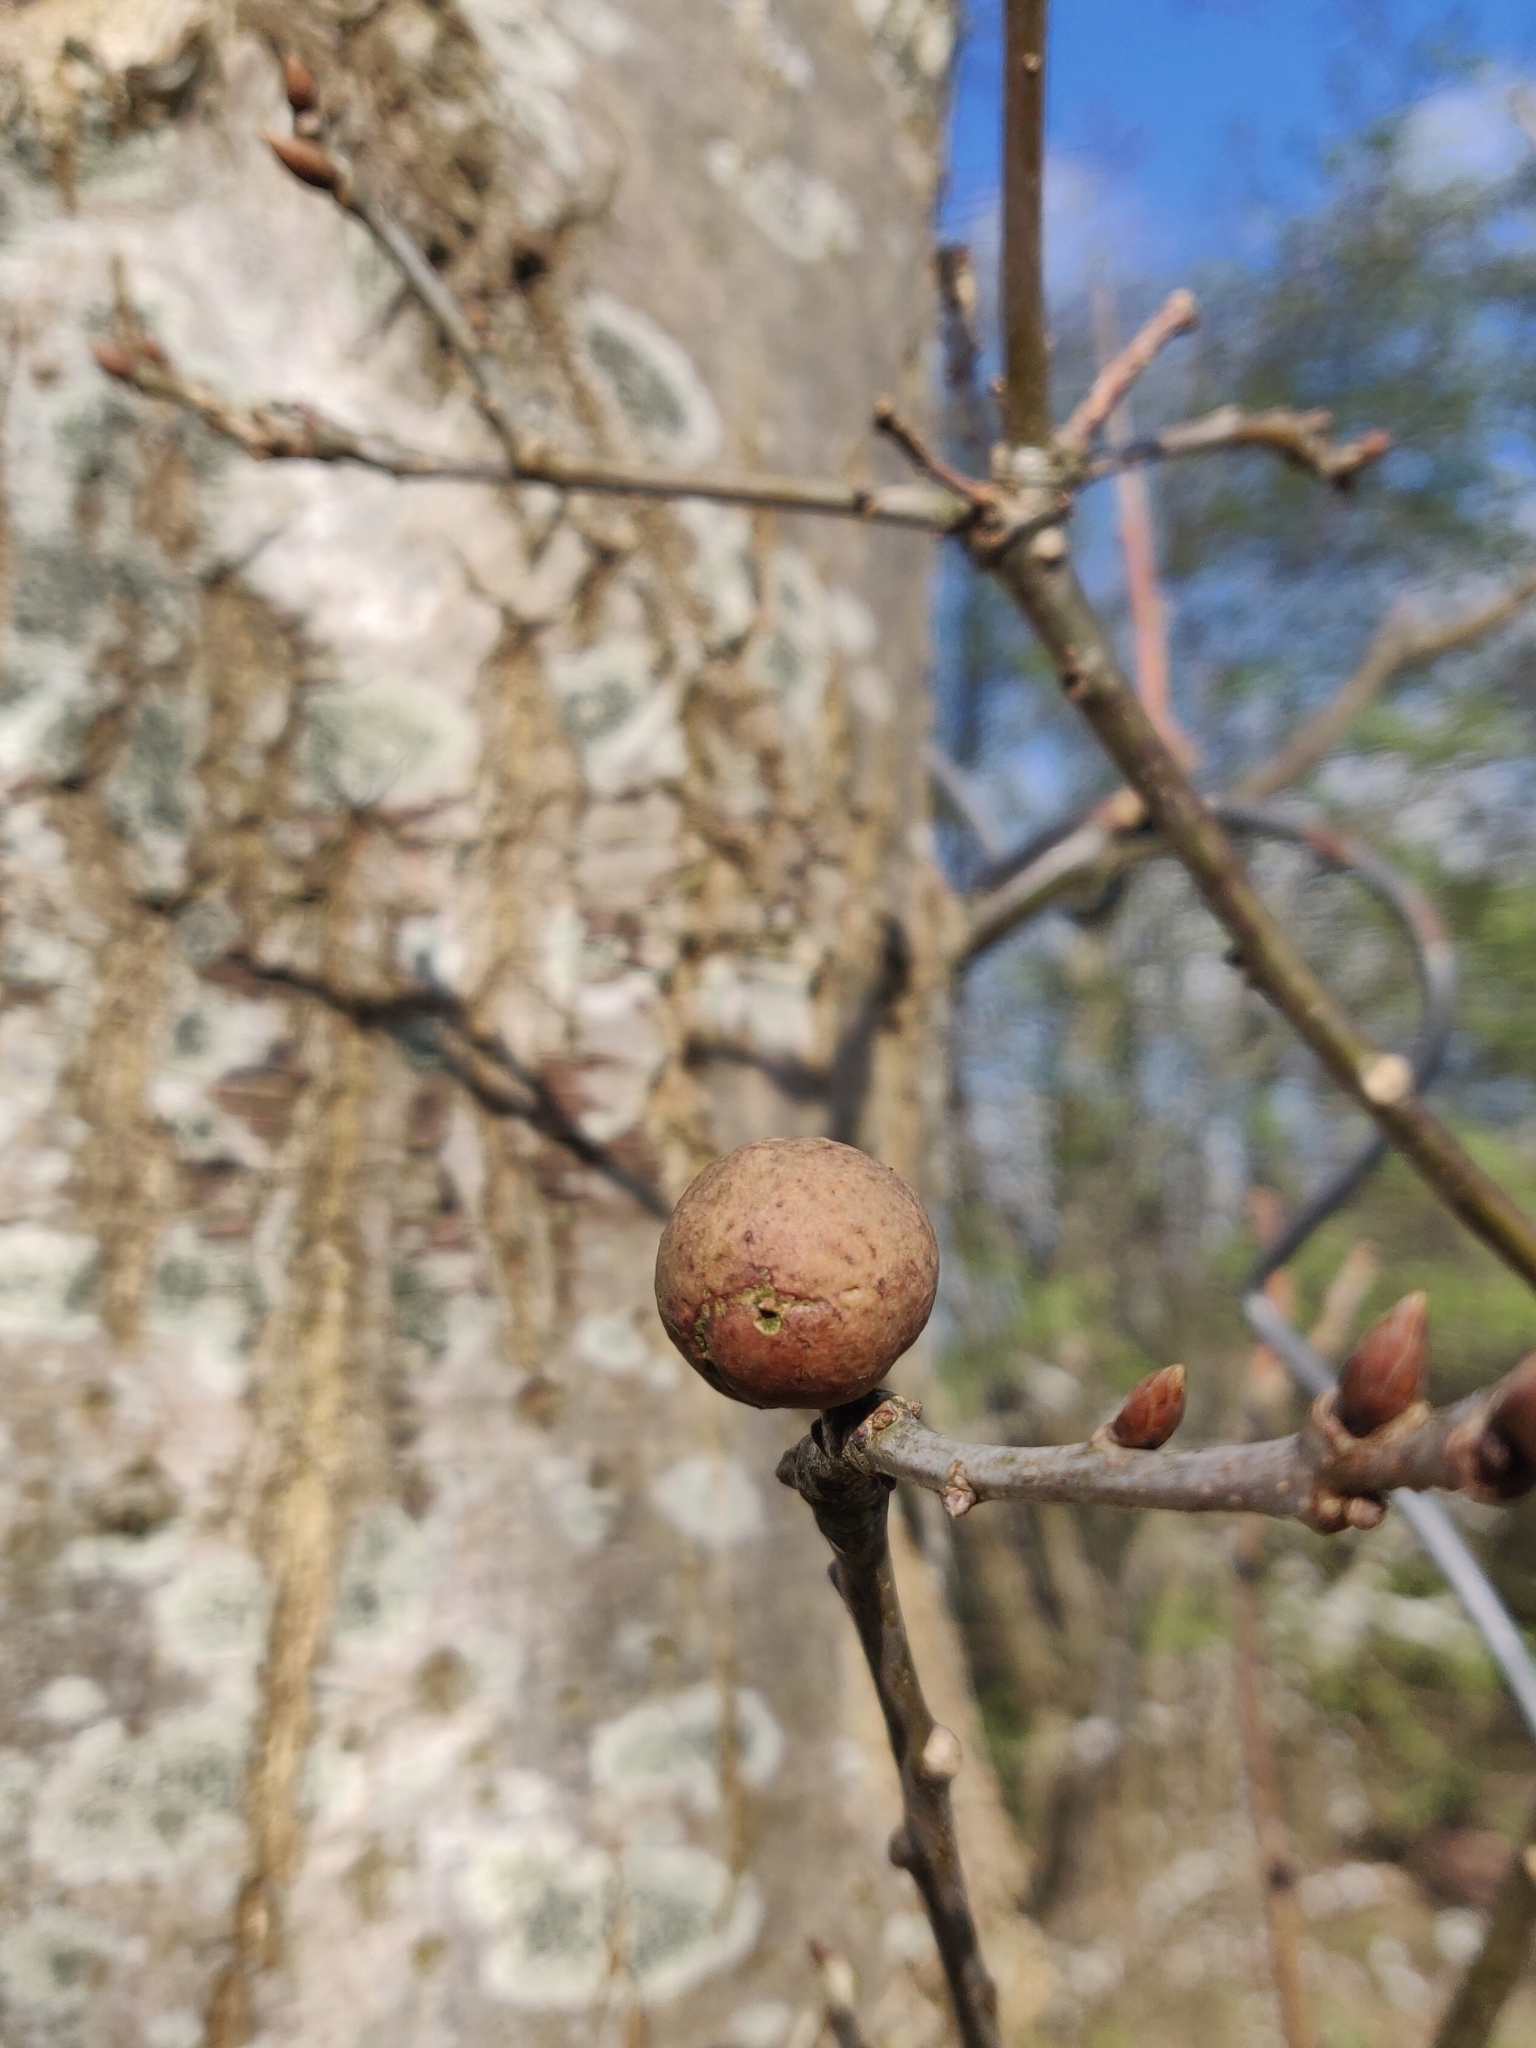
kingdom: Animalia
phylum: Arthropoda
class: Insecta
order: Hymenoptera
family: Cynipidae
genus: Andricus
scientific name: Andricus kollari
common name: Marble gall
